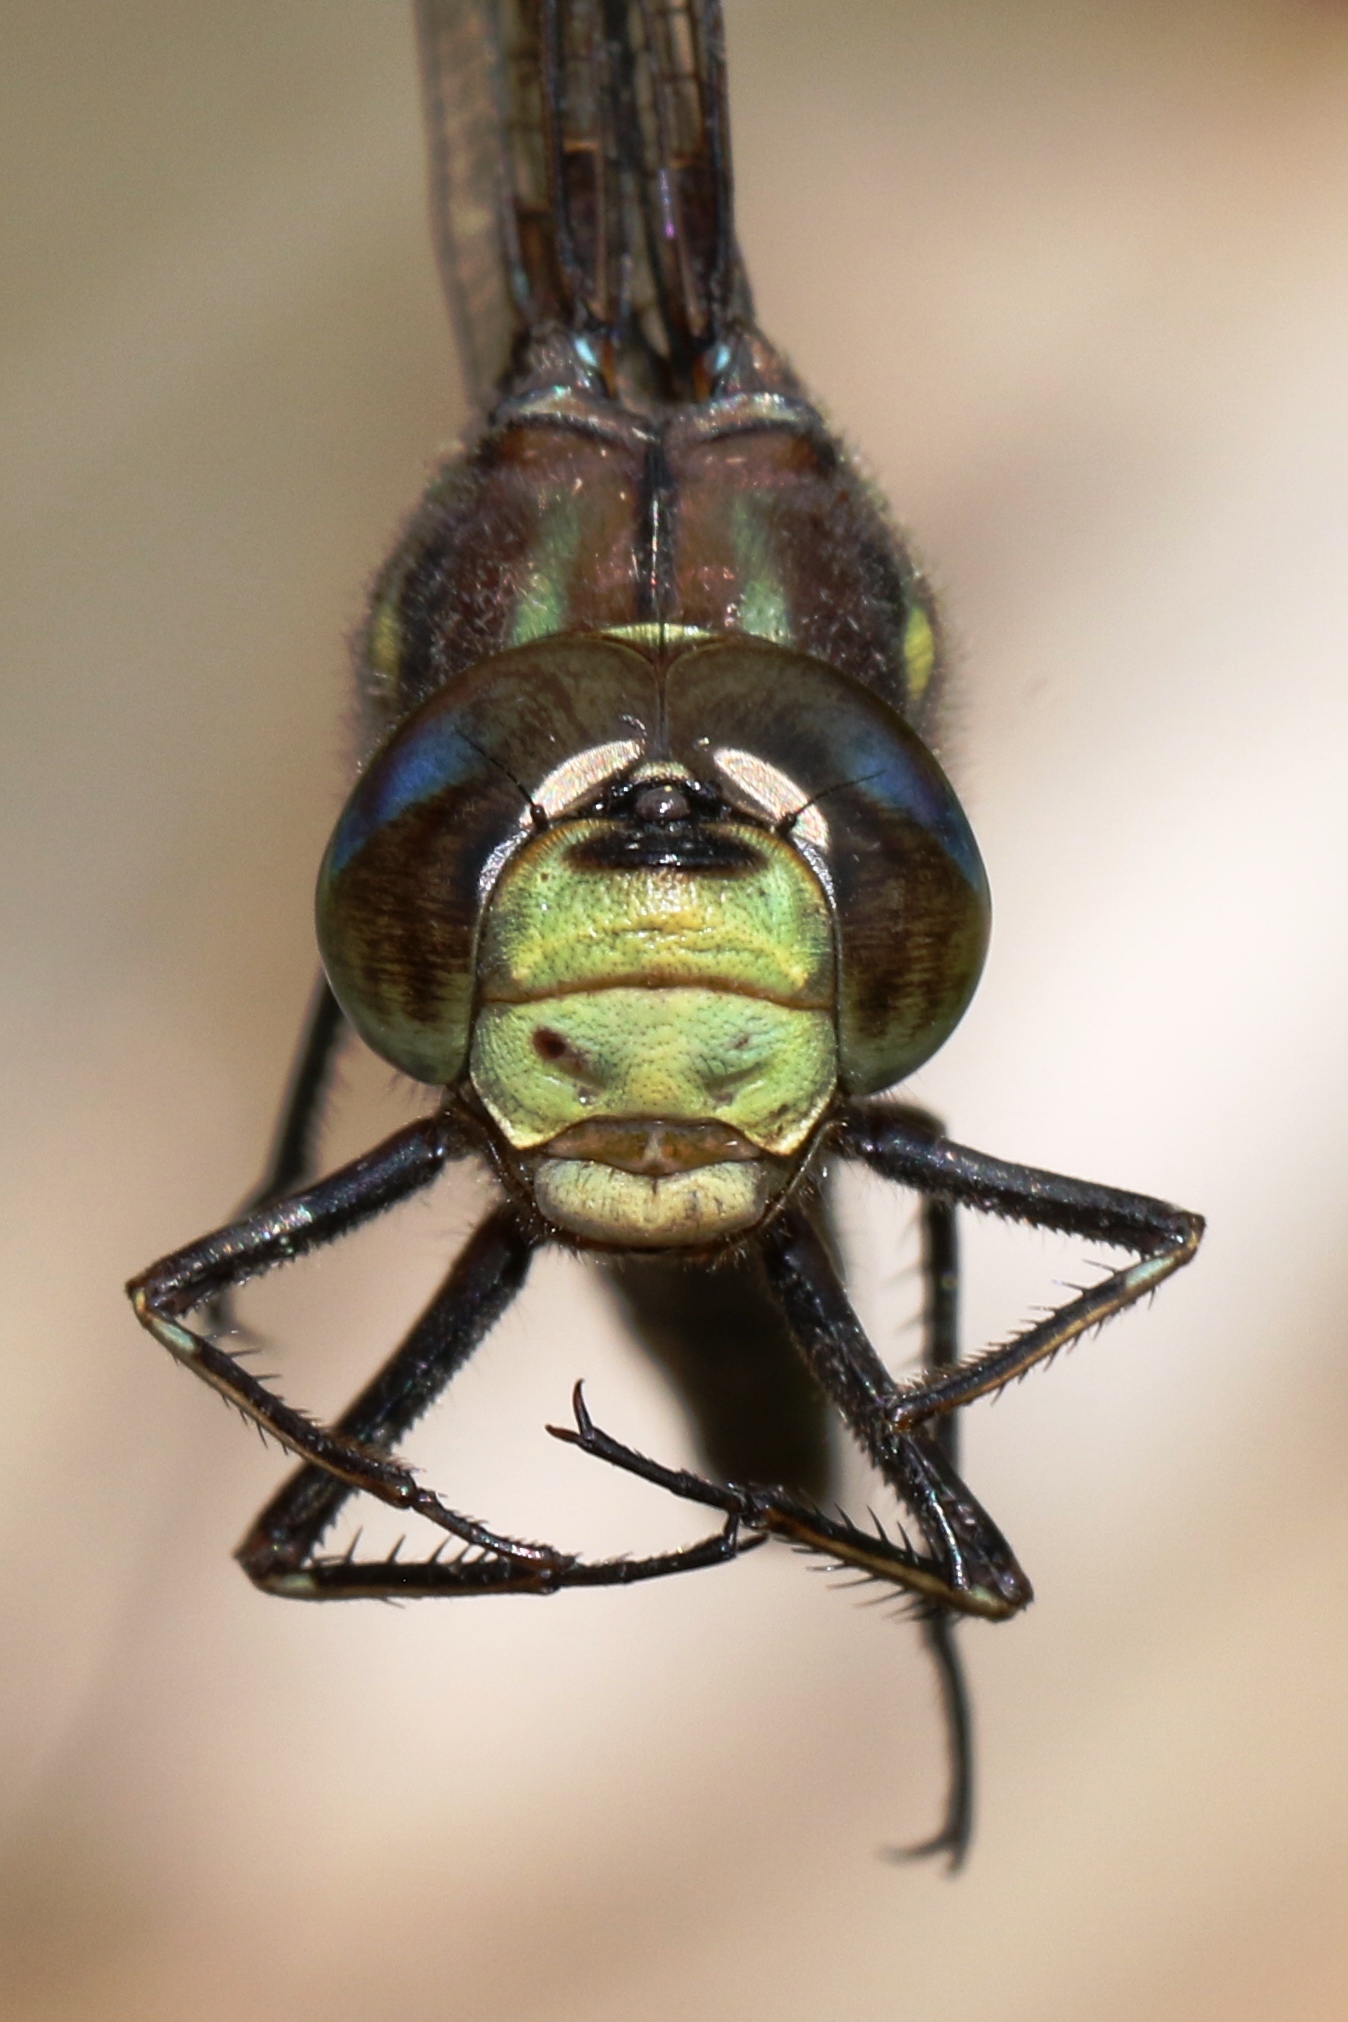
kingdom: Animalia
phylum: Arthropoda
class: Insecta
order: Odonata
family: Aeshnidae
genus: Basiaeschna
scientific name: Basiaeschna janata
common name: Springtime darner
